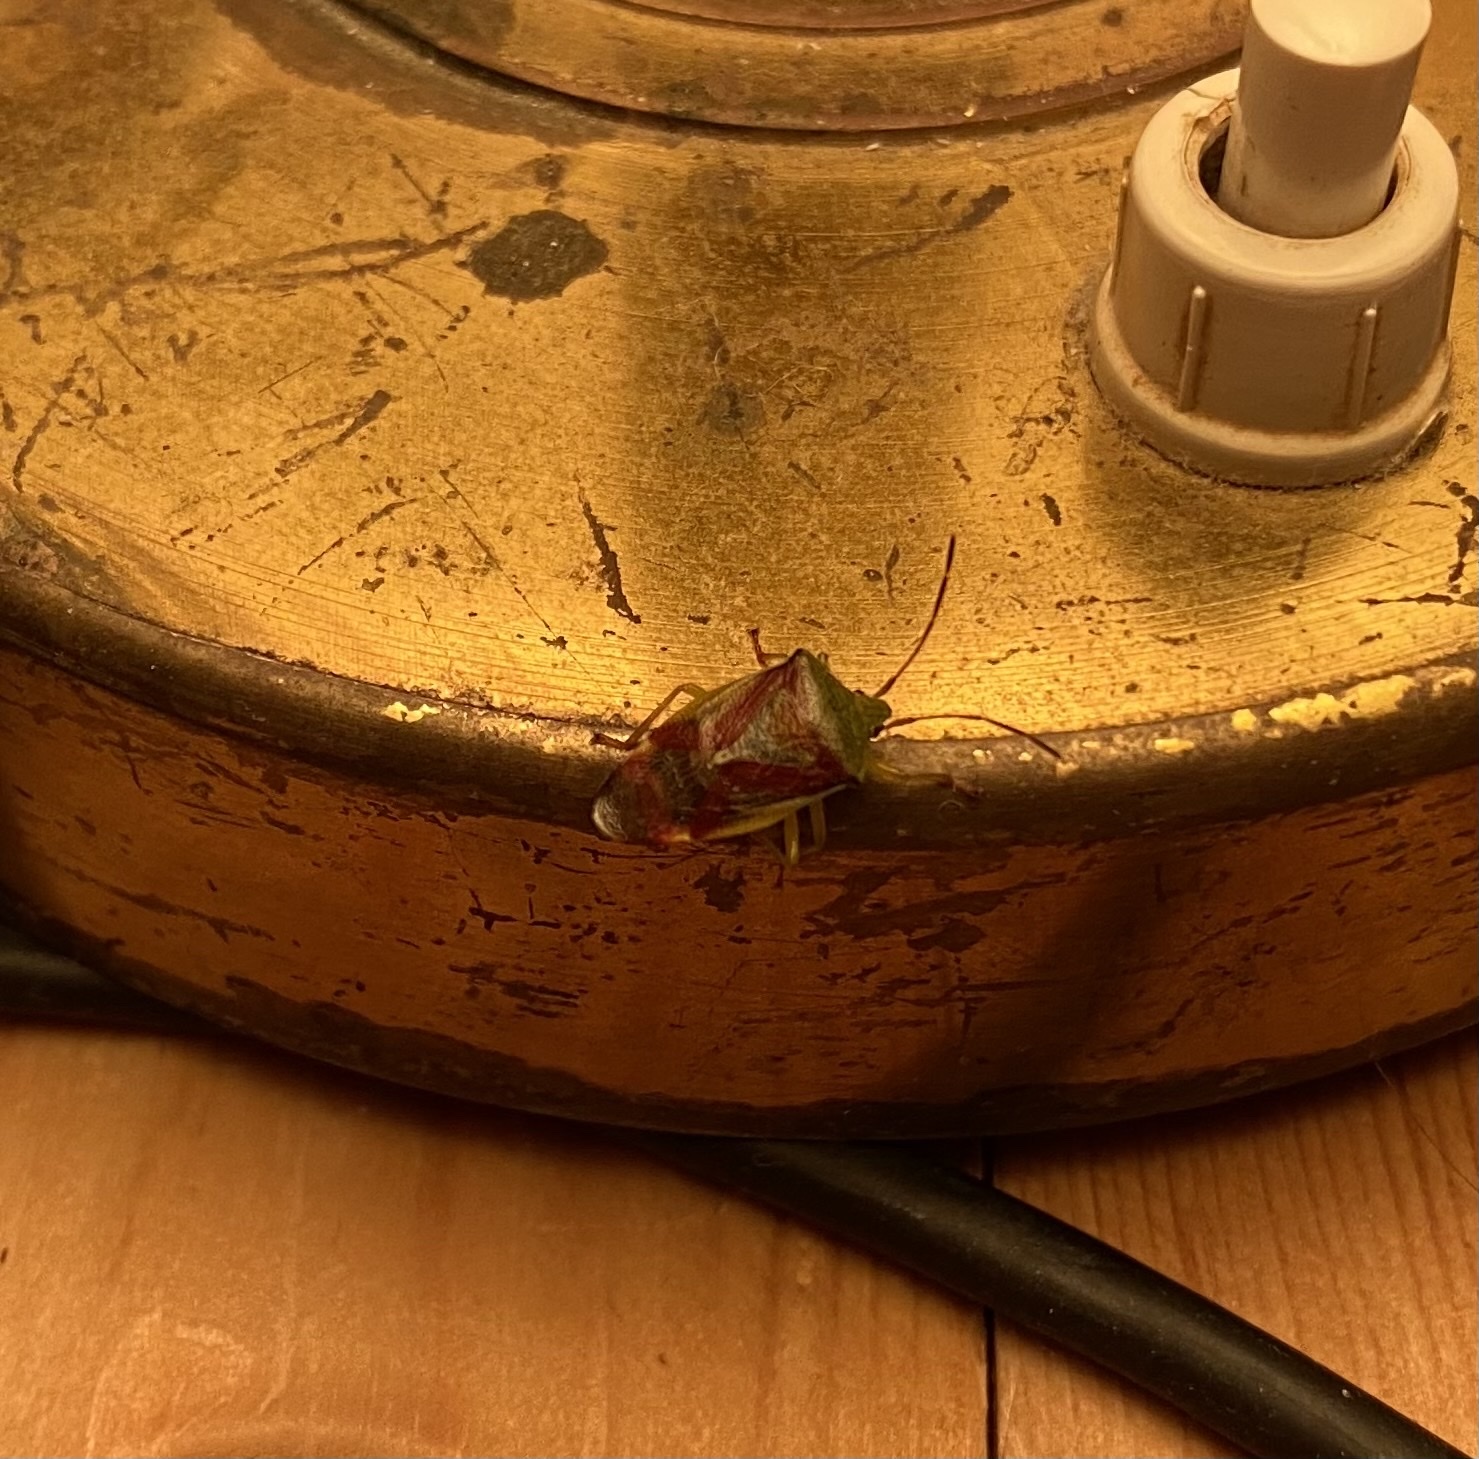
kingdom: Animalia
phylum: Arthropoda
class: Insecta
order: Hemiptera
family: Acanthosomatidae
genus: Elasmostethus
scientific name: Elasmostethus interstinctus
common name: Birch shieldbug
